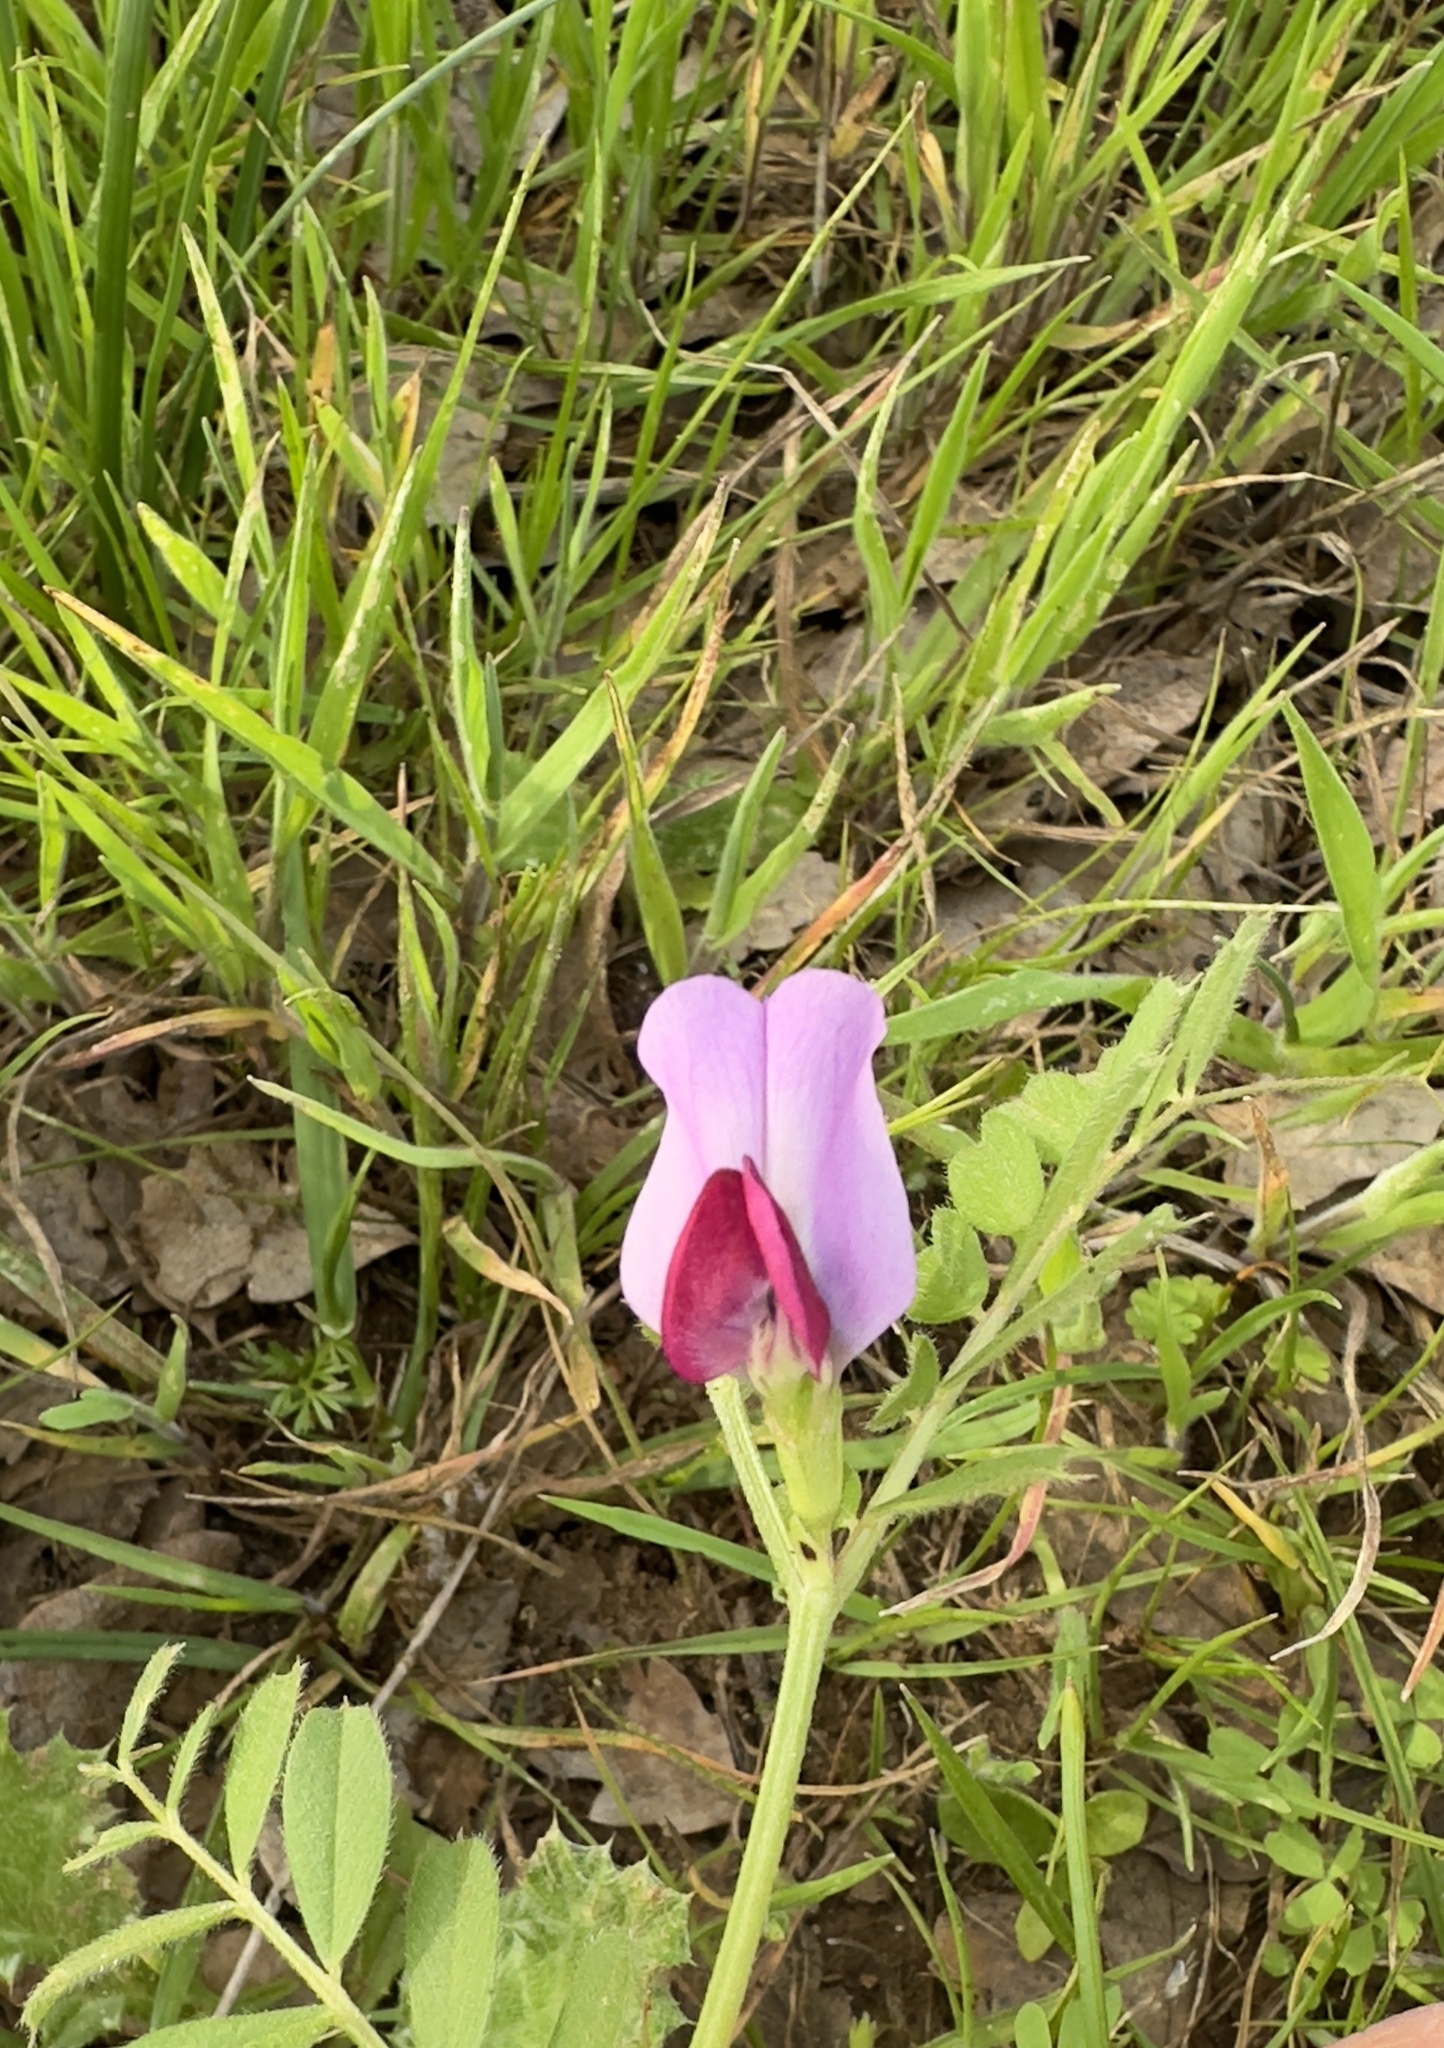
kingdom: Plantae
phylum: Tracheophyta
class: Magnoliopsida
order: Fabales
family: Fabaceae
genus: Vicia
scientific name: Vicia sativa
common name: Garden vetch
